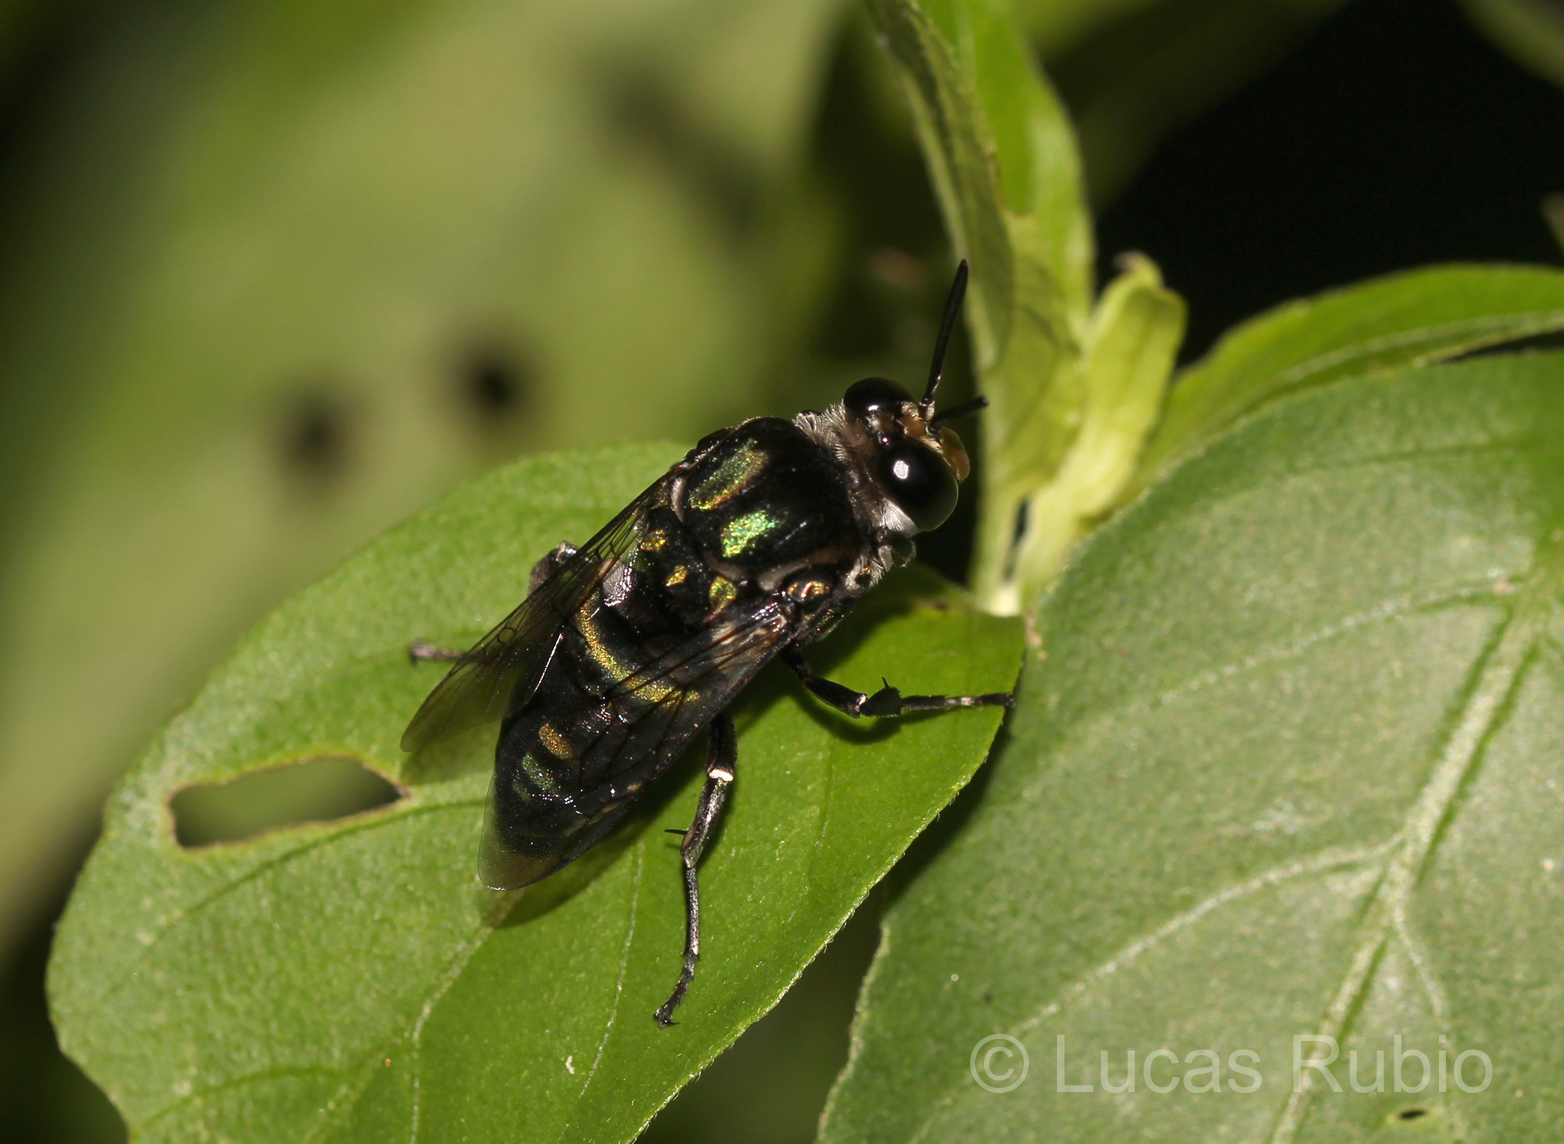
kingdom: Animalia
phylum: Arthropoda
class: Insecta
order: Hymenoptera
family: Apidae
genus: Thalestria
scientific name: Thalestria spinosa
